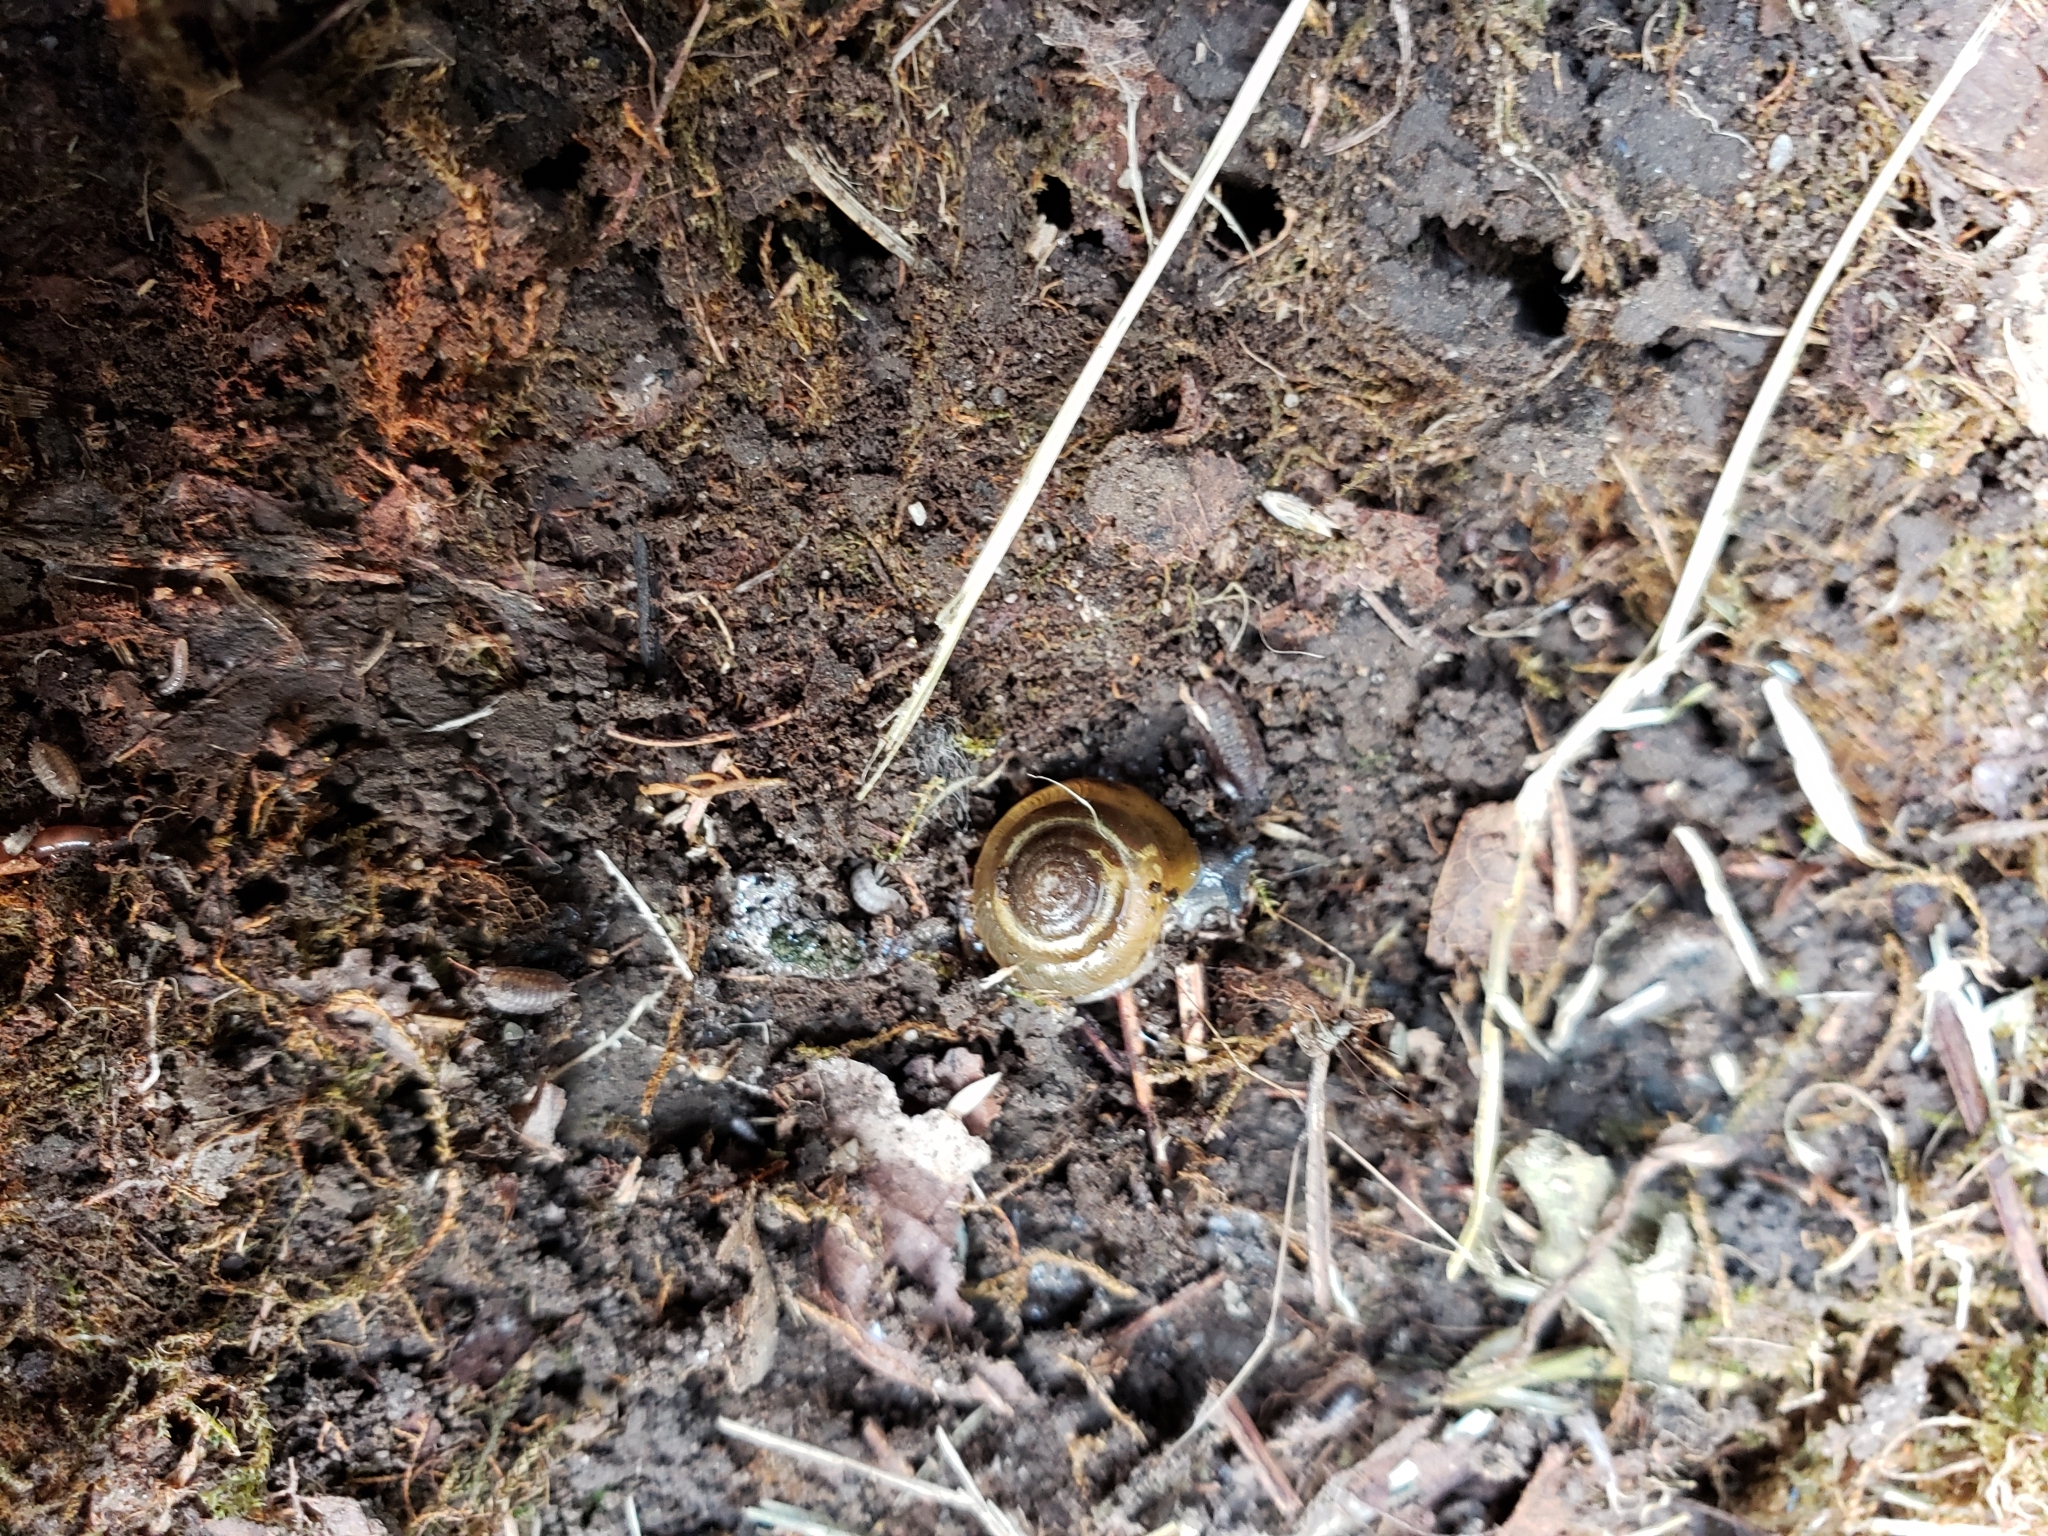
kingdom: Animalia
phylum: Mollusca
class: Gastropoda
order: Stylommatophora
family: Gastrodontidae
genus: Ventridens
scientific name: Ventridens ligera
